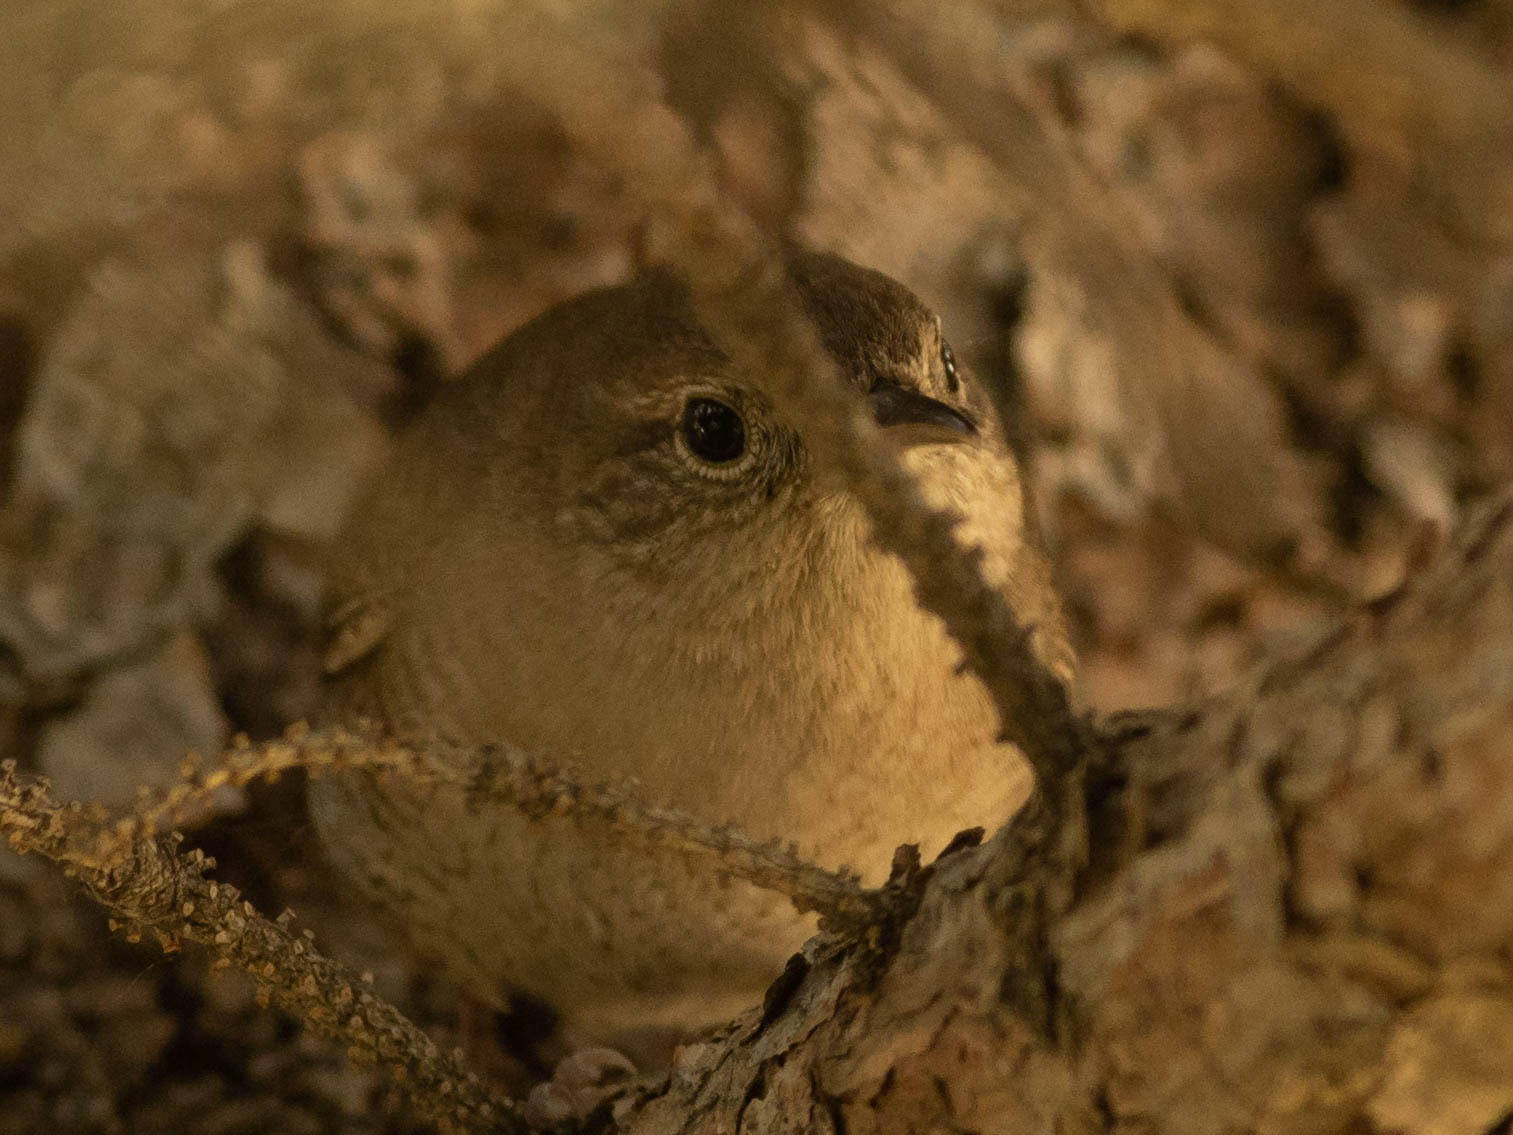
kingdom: Animalia
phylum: Chordata
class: Aves
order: Passeriformes
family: Troglodytidae
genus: Troglodytes
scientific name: Troglodytes aedon
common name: House wren
